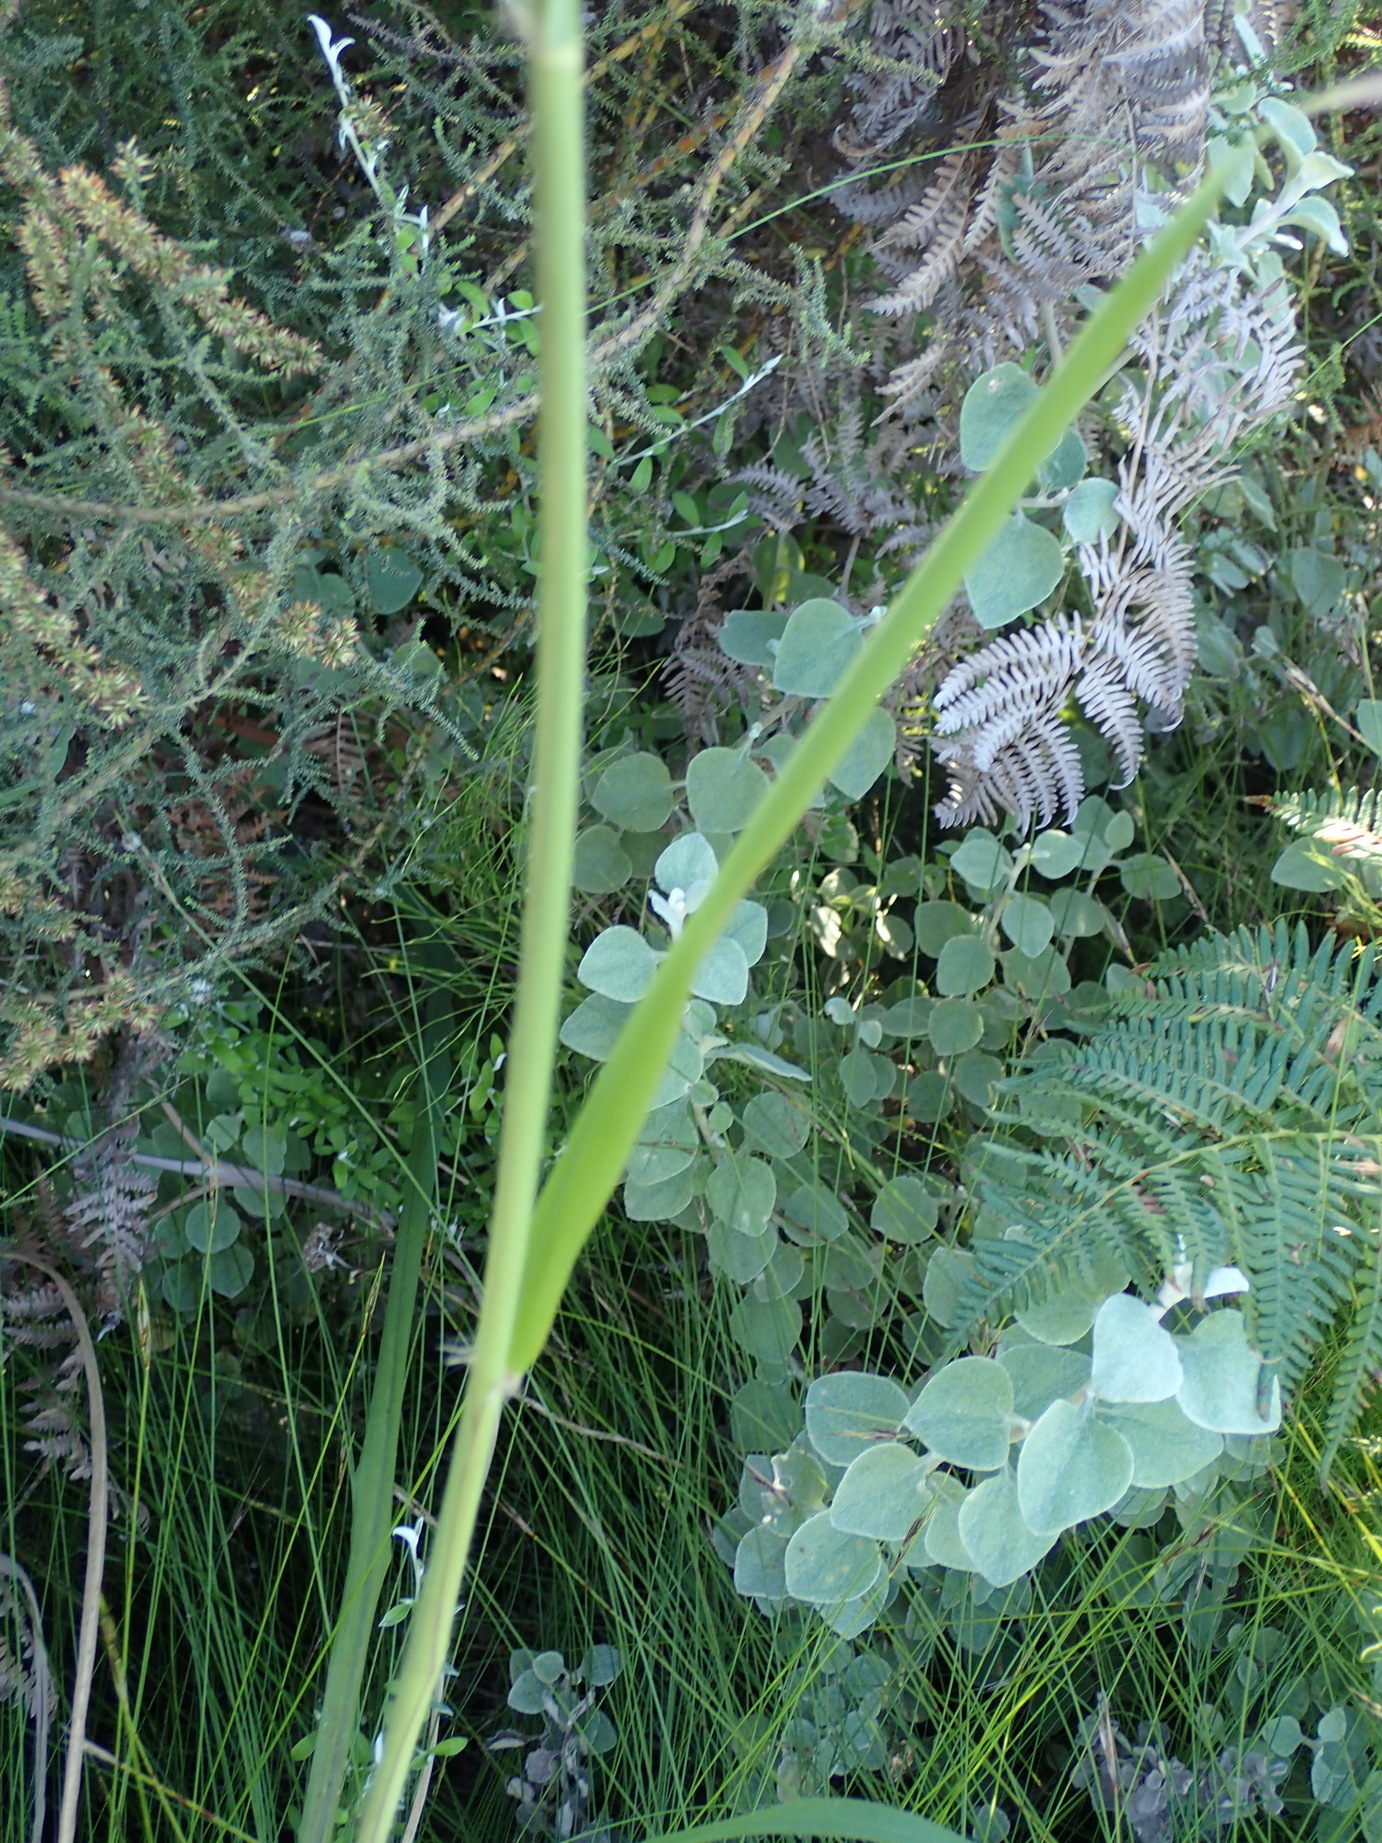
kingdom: Plantae
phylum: Tracheophyta
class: Liliopsida
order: Poales
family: Poaceae
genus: Paspalum
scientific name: Paspalum urvillei
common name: Vasey's grass
